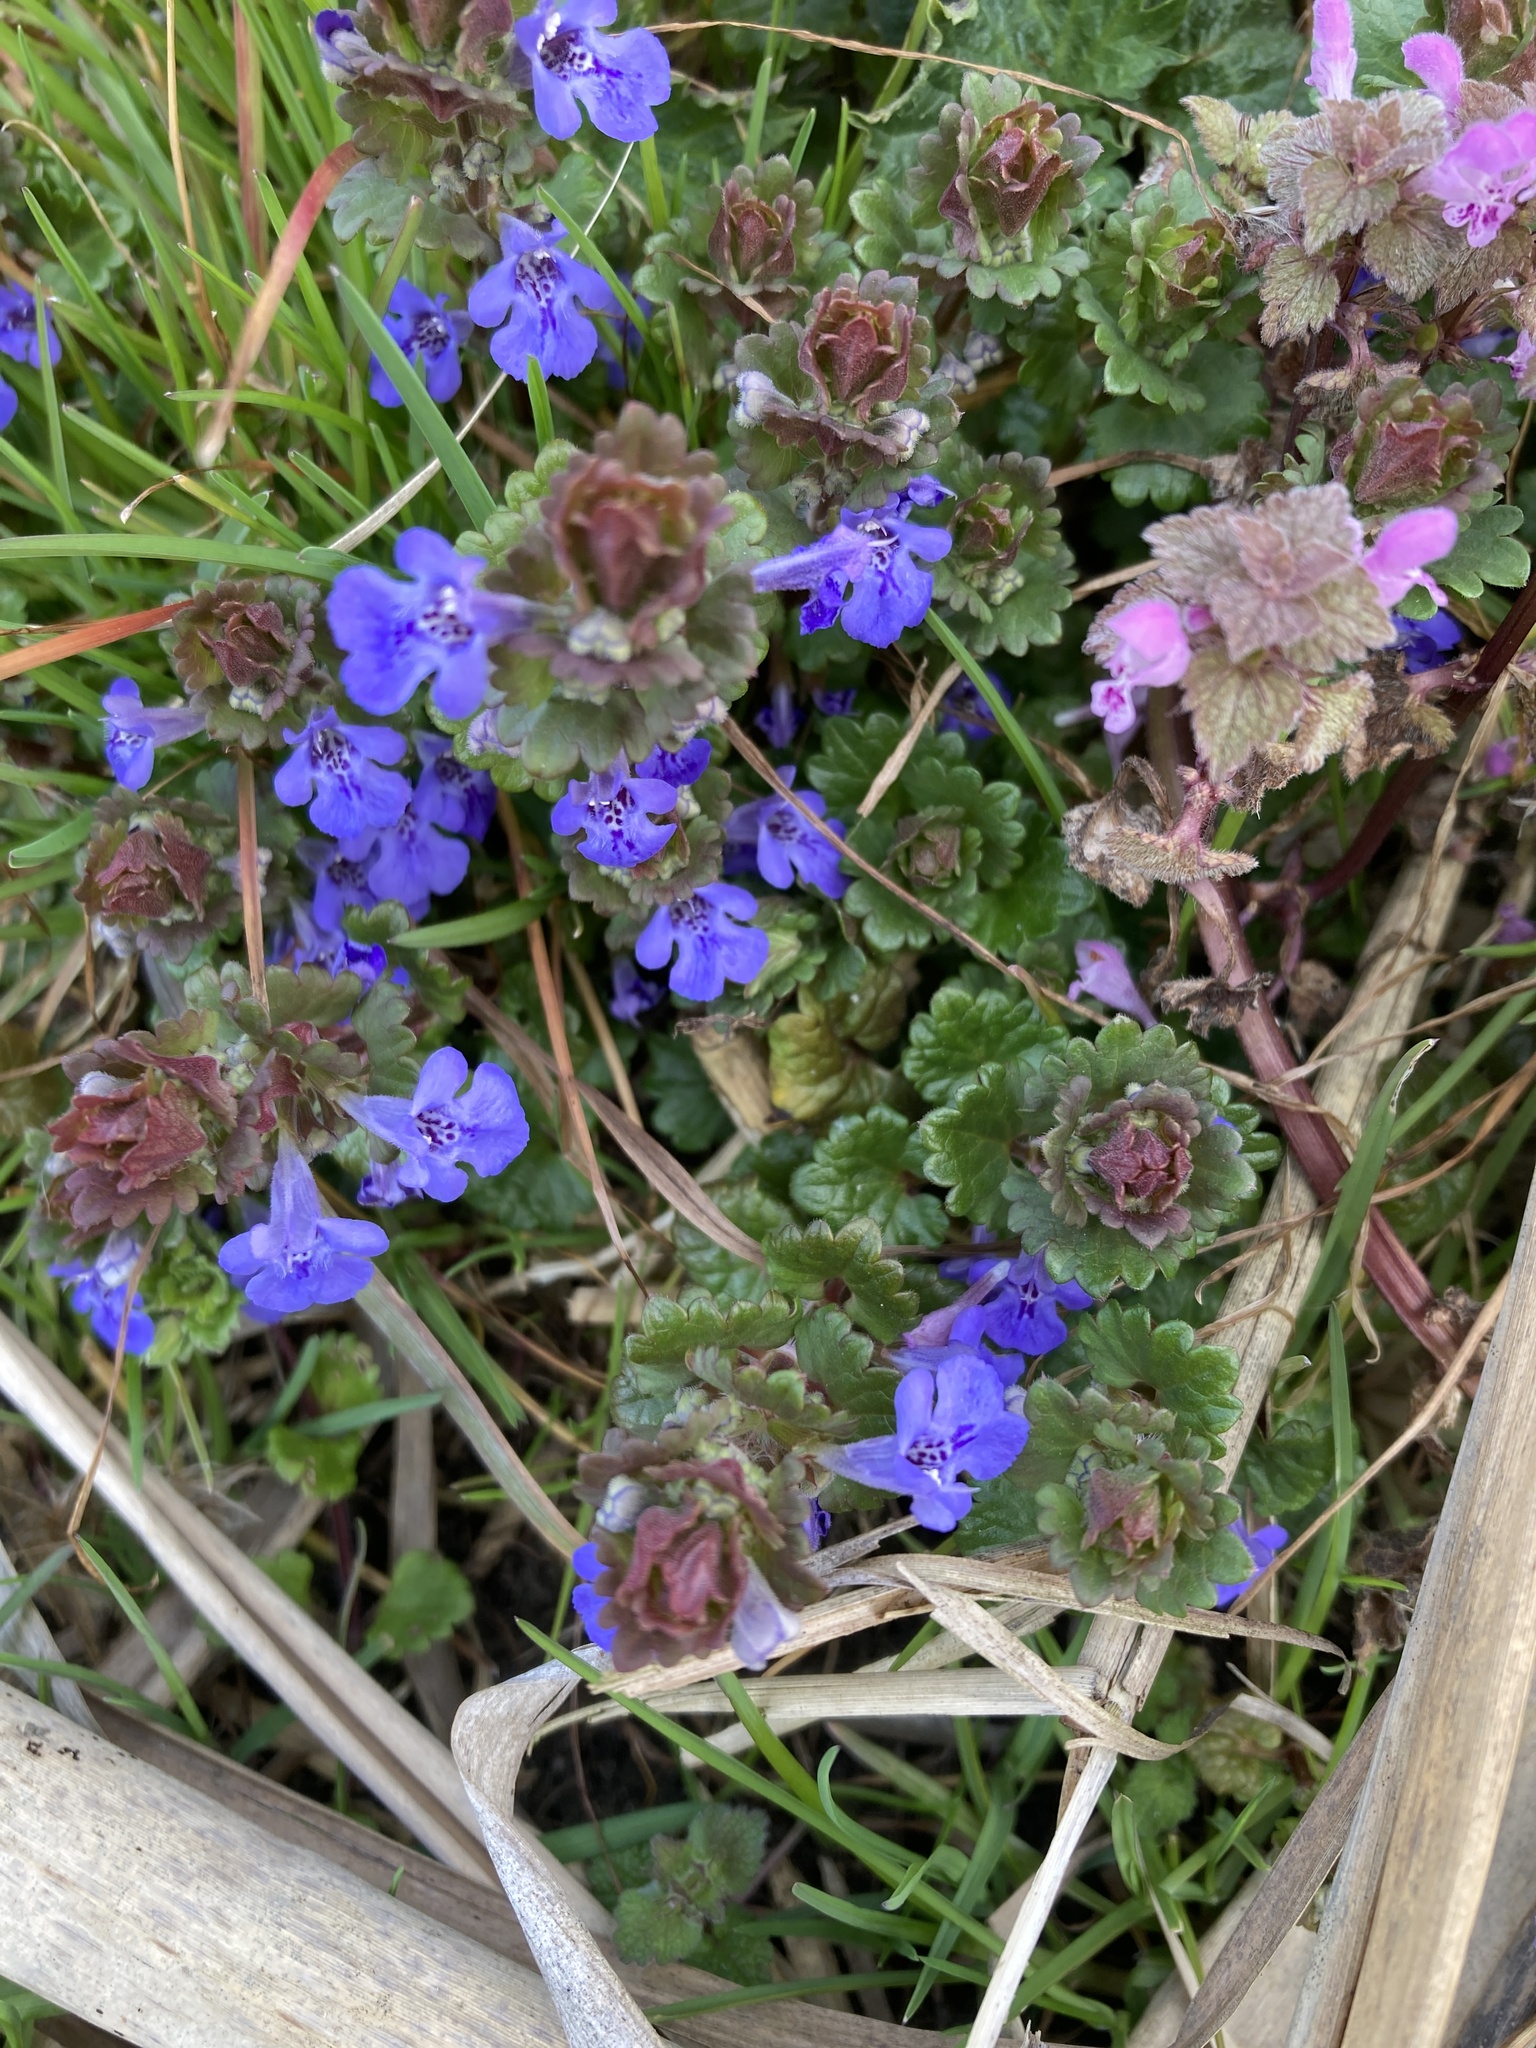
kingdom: Plantae
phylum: Tracheophyta
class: Magnoliopsida
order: Lamiales
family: Lamiaceae
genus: Glechoma
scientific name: Glechoma hederacea
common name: Ground ivy
